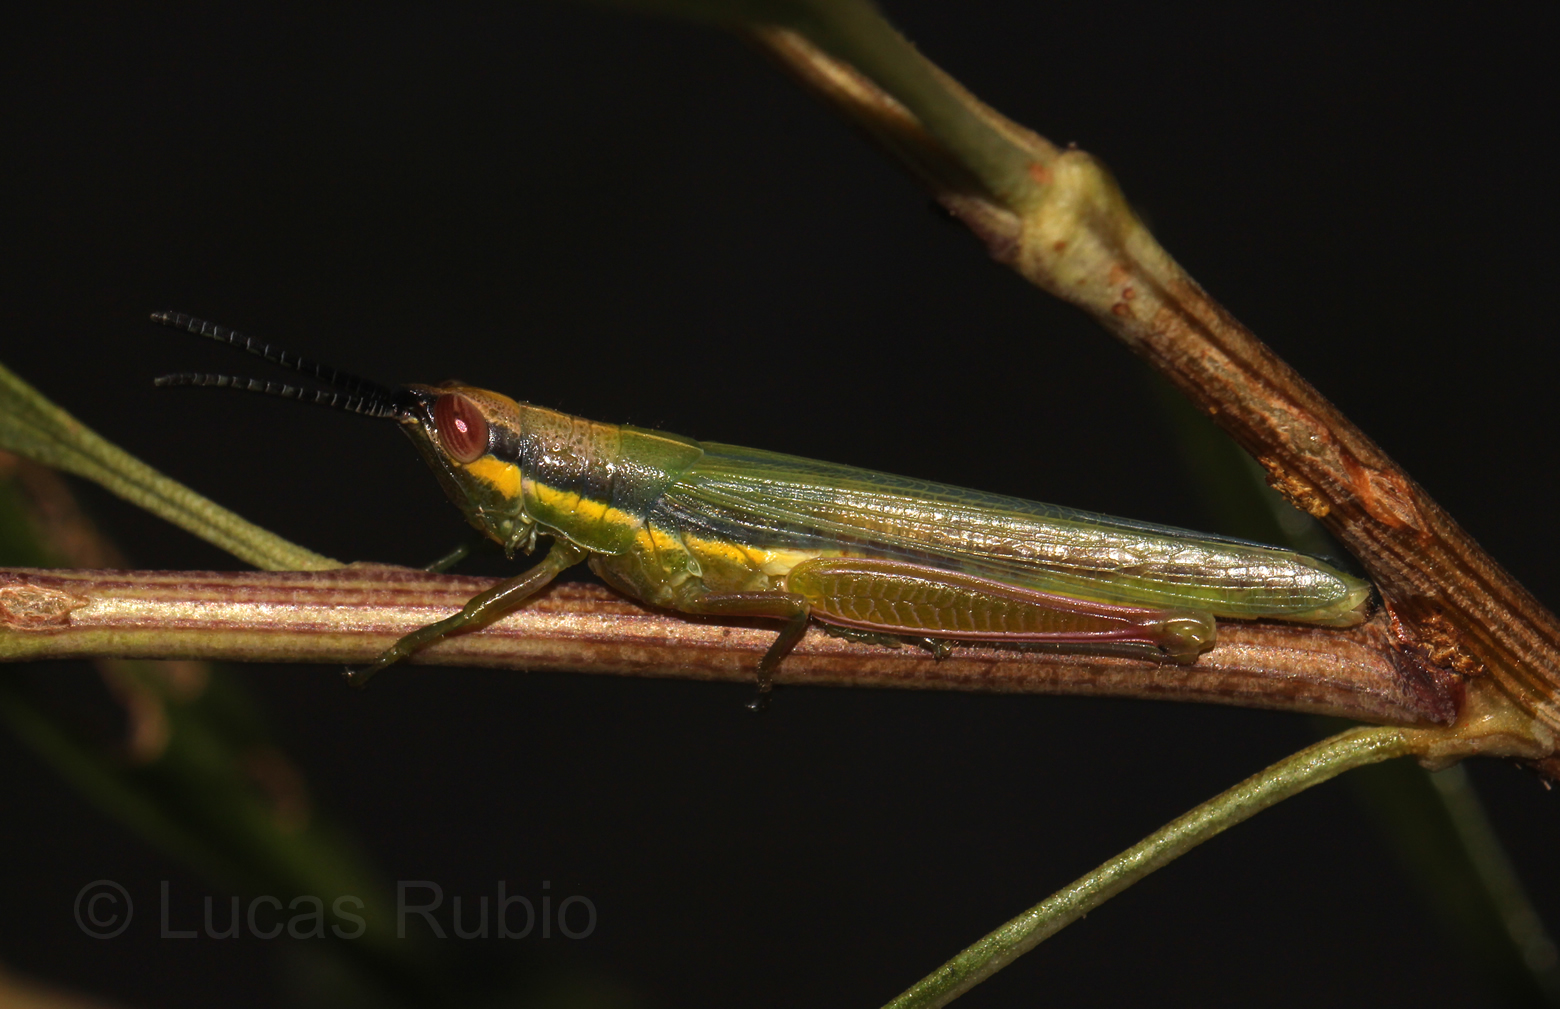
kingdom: Animalia
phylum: Arthropoda
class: Insecta
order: Orthoptera
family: Acrididae
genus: Stenopola
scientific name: Stenopola flava
